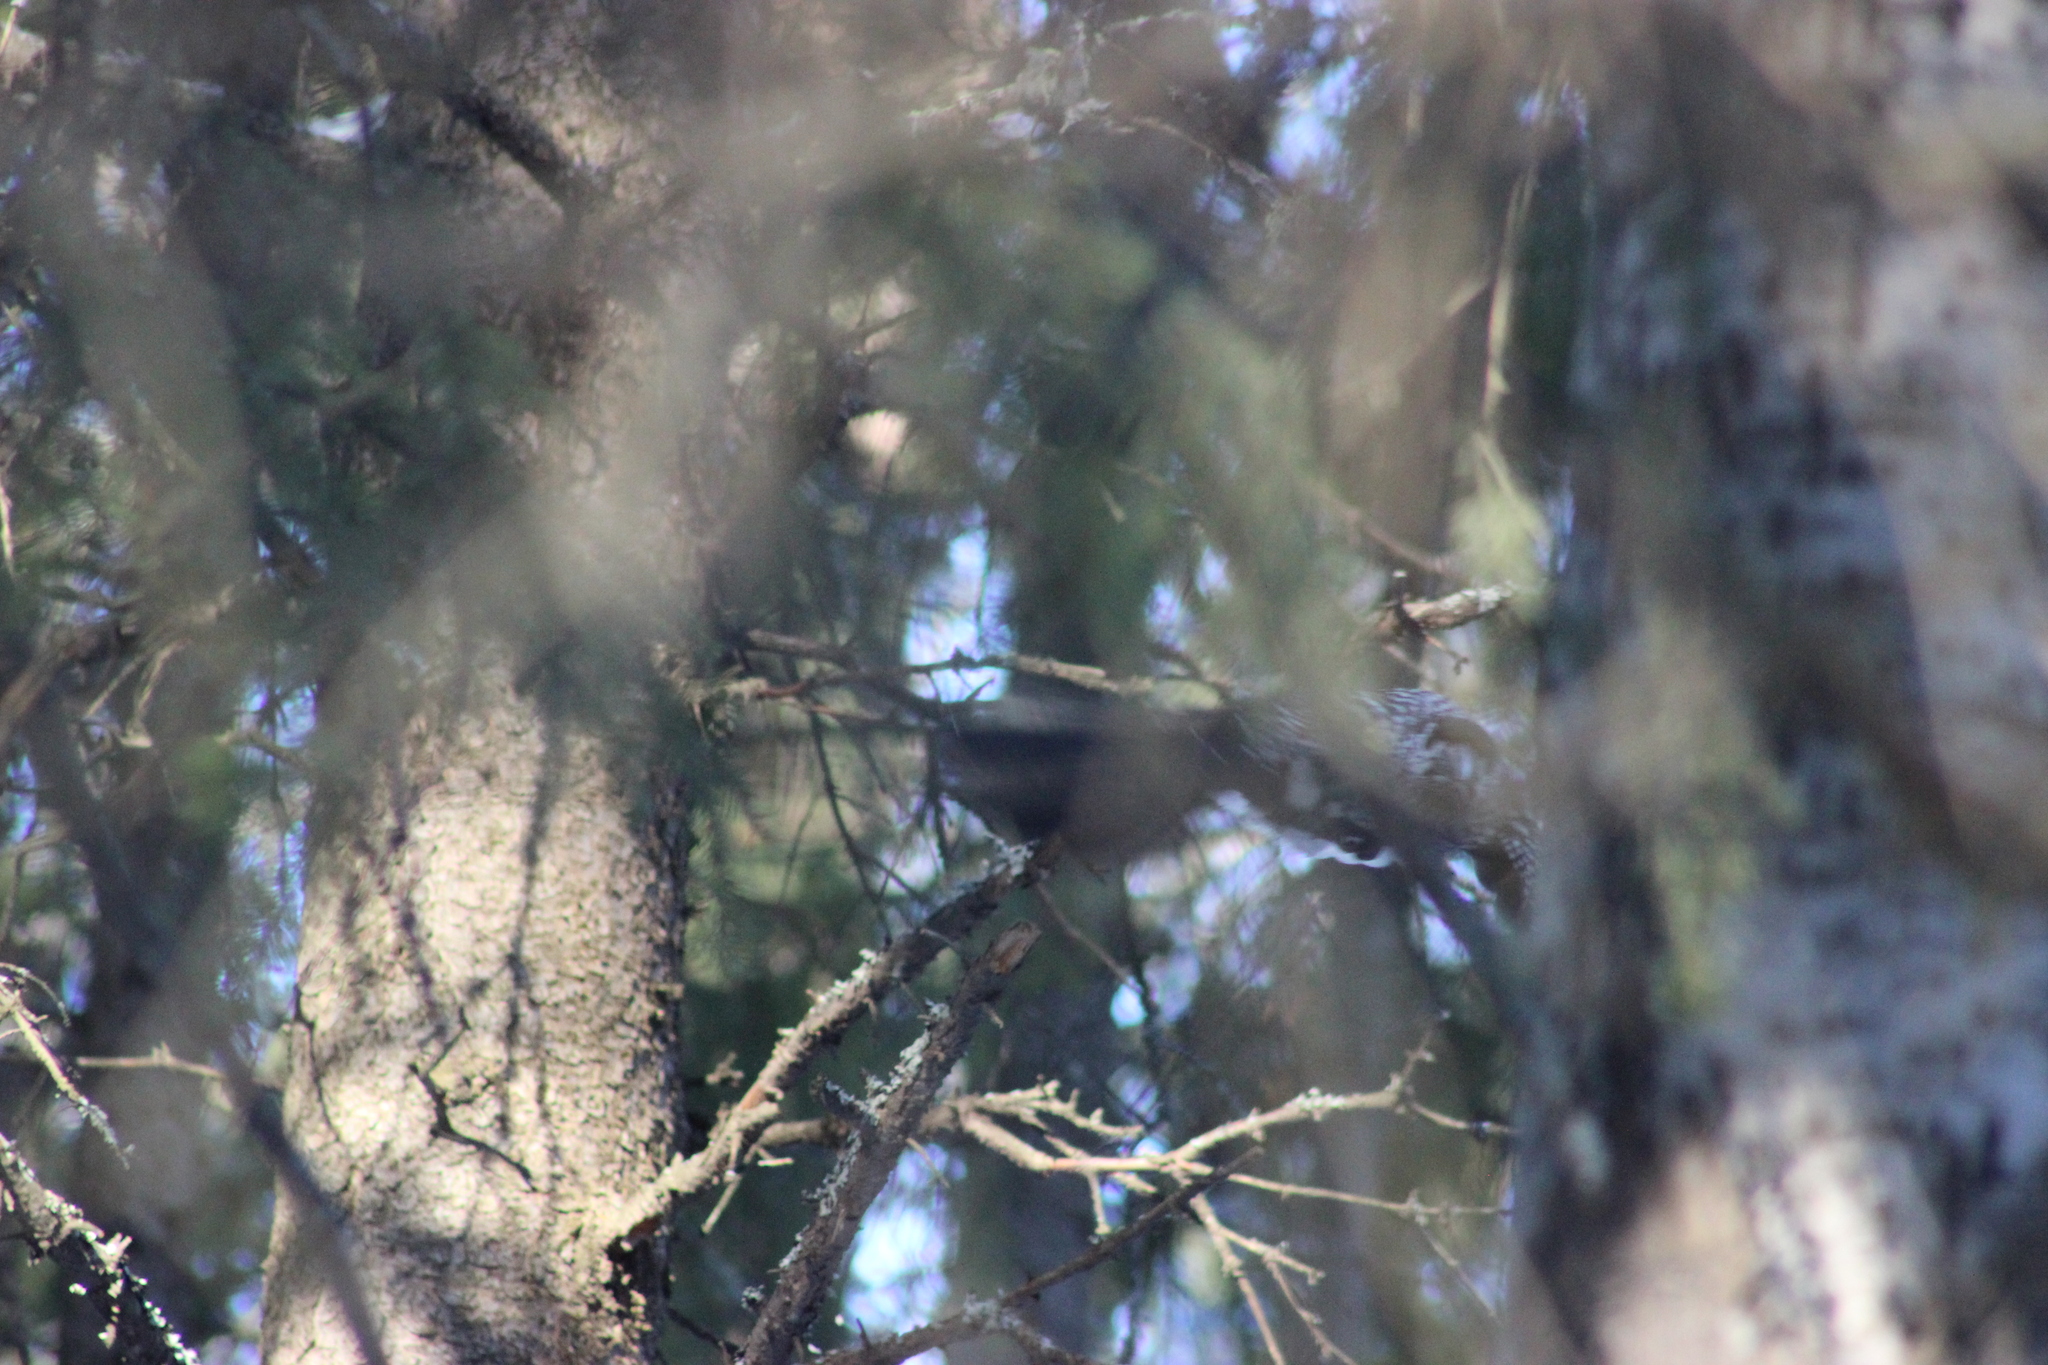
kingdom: Animalia
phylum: Chordata
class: Aves
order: Passeriformes
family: Corvidae
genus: Nucifraga
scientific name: Nucifraga caryocatactes
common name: Spotted nutcracker
